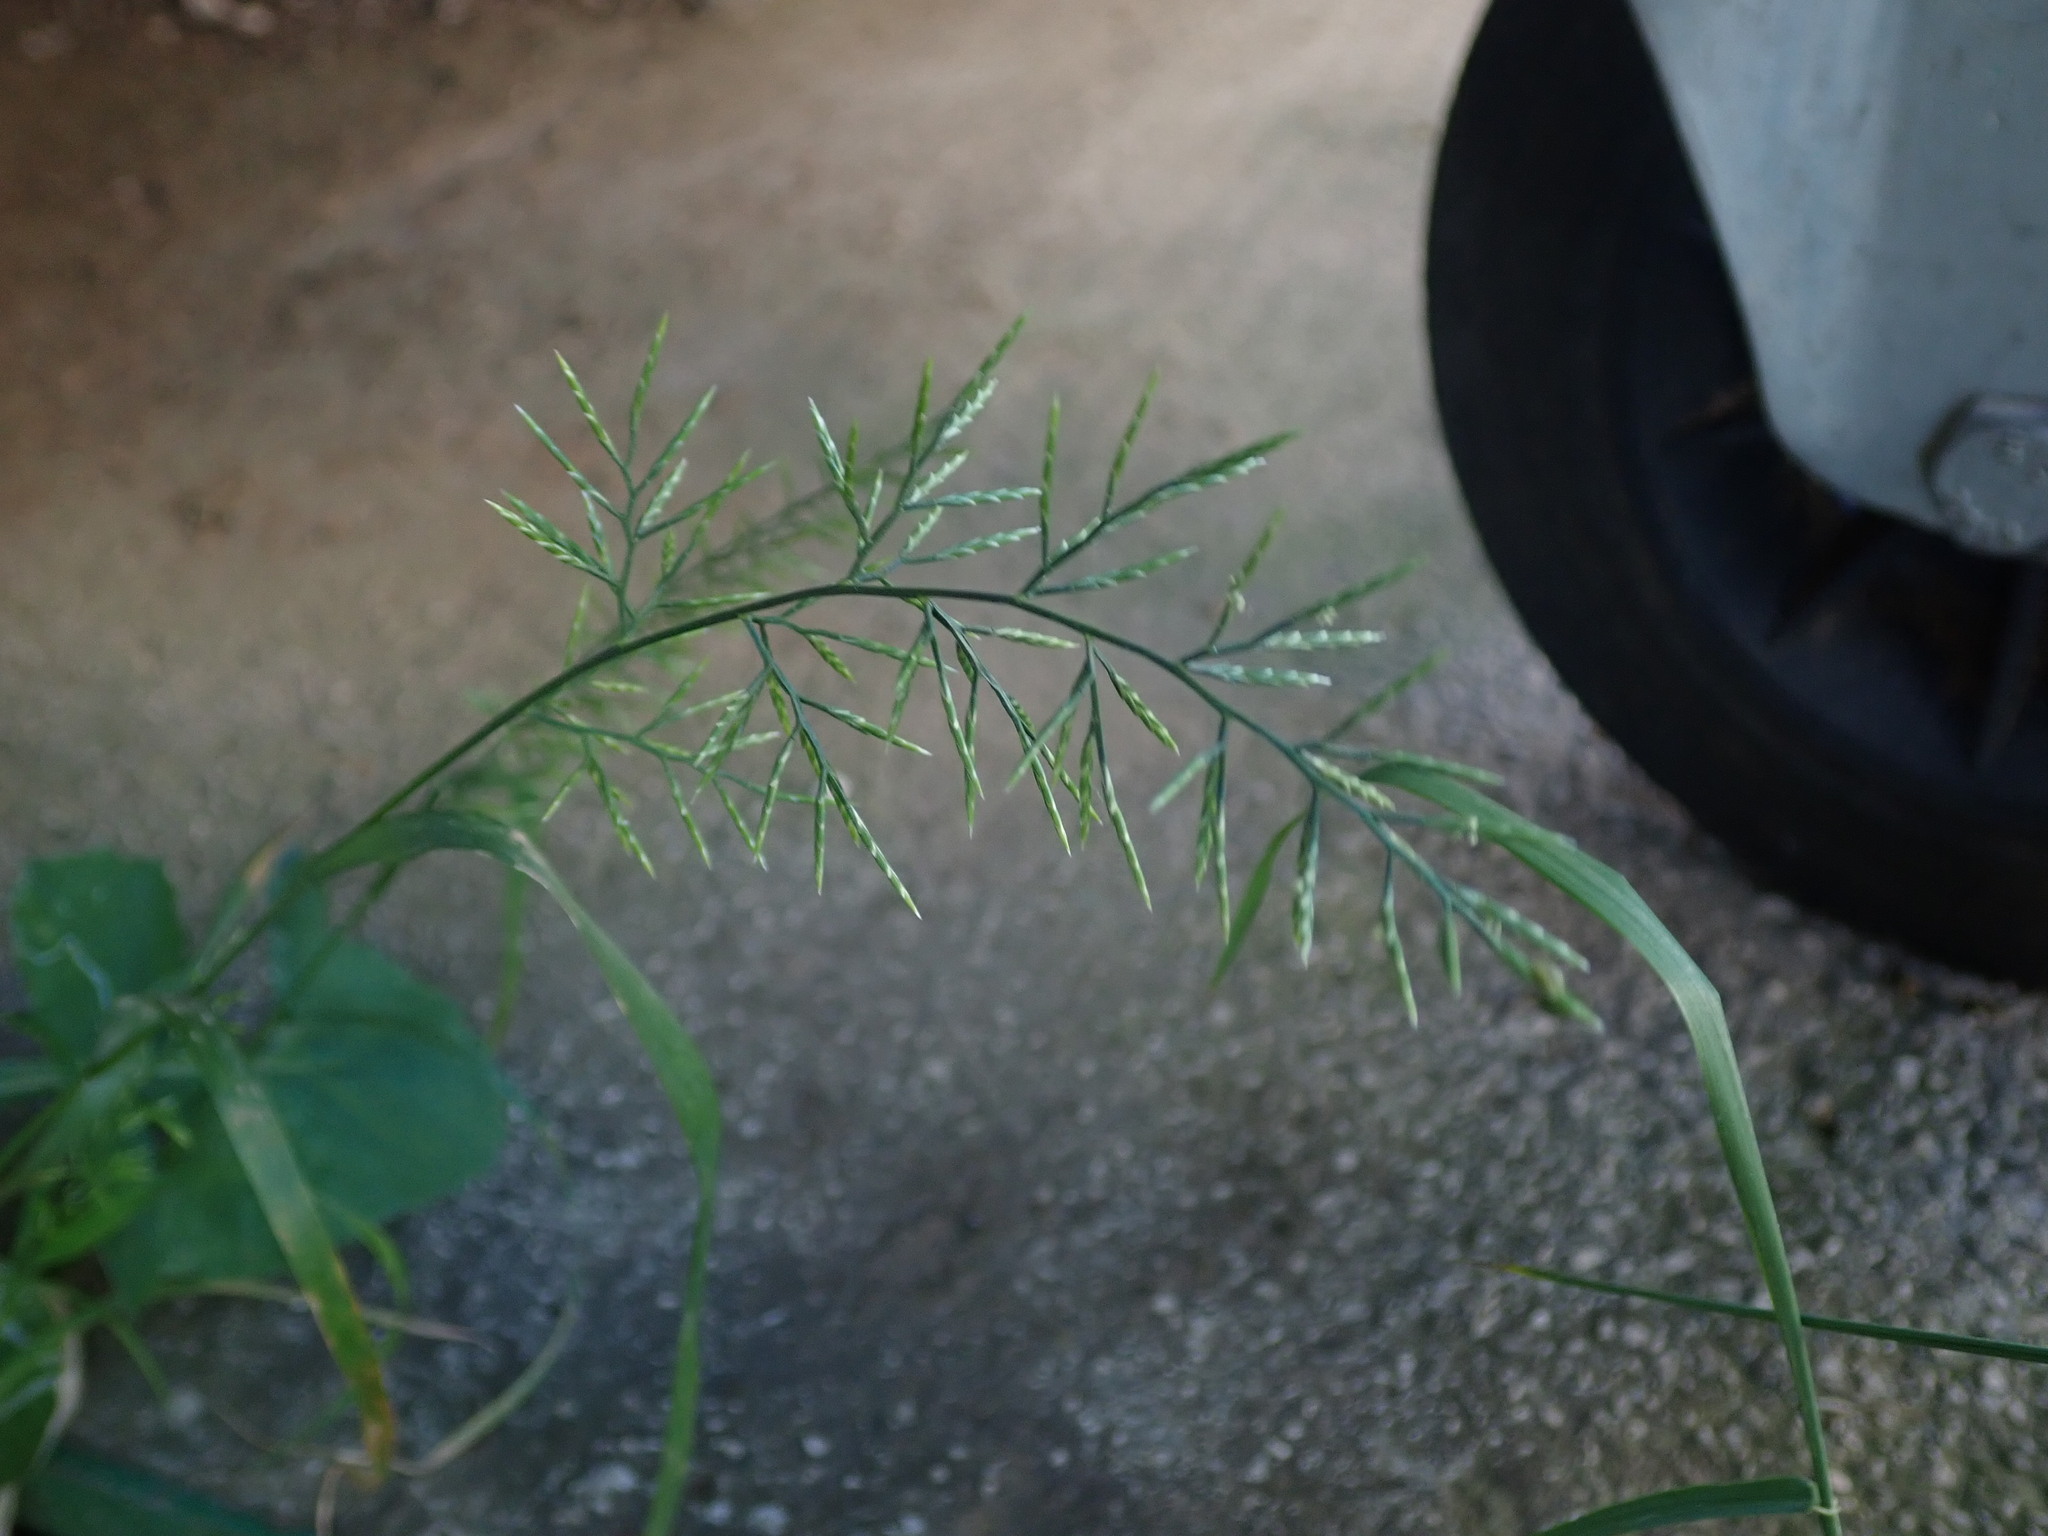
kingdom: Plantae
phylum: Tracheophyta
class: Liliopsida
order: Poales
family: Poaceae
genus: Catapodium
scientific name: Catapodium rigidum
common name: Fern-grass
